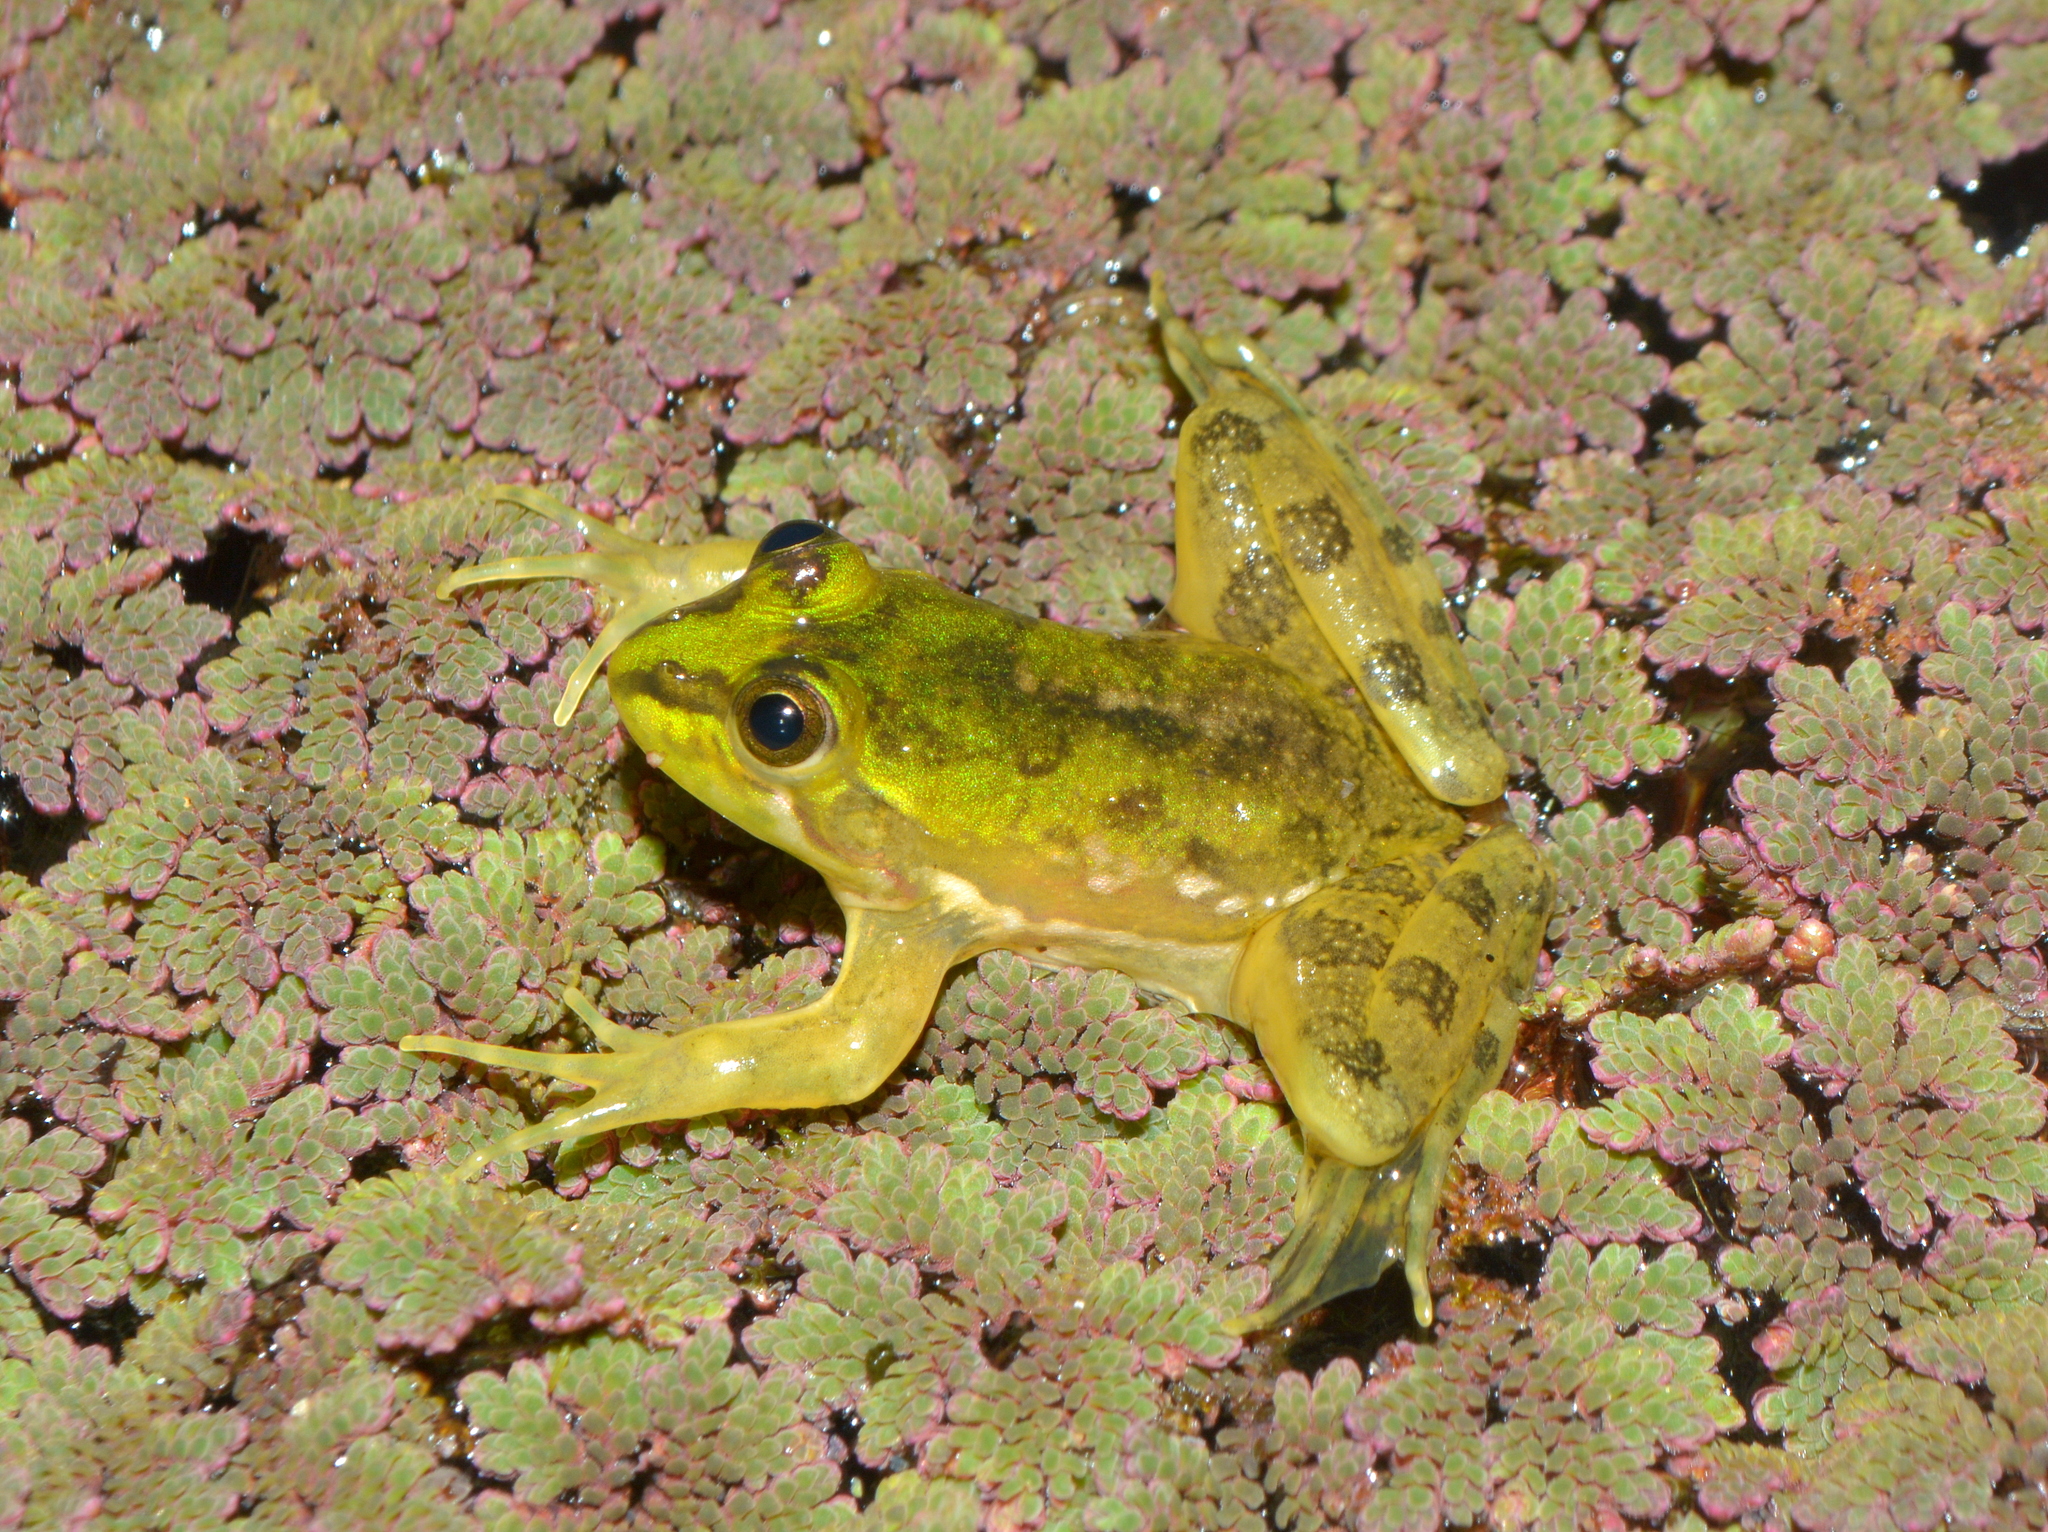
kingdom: Animalia
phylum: Chordata
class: Amphibia
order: Anura
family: Hylidae
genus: Pseudis
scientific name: Pseudis minuta
